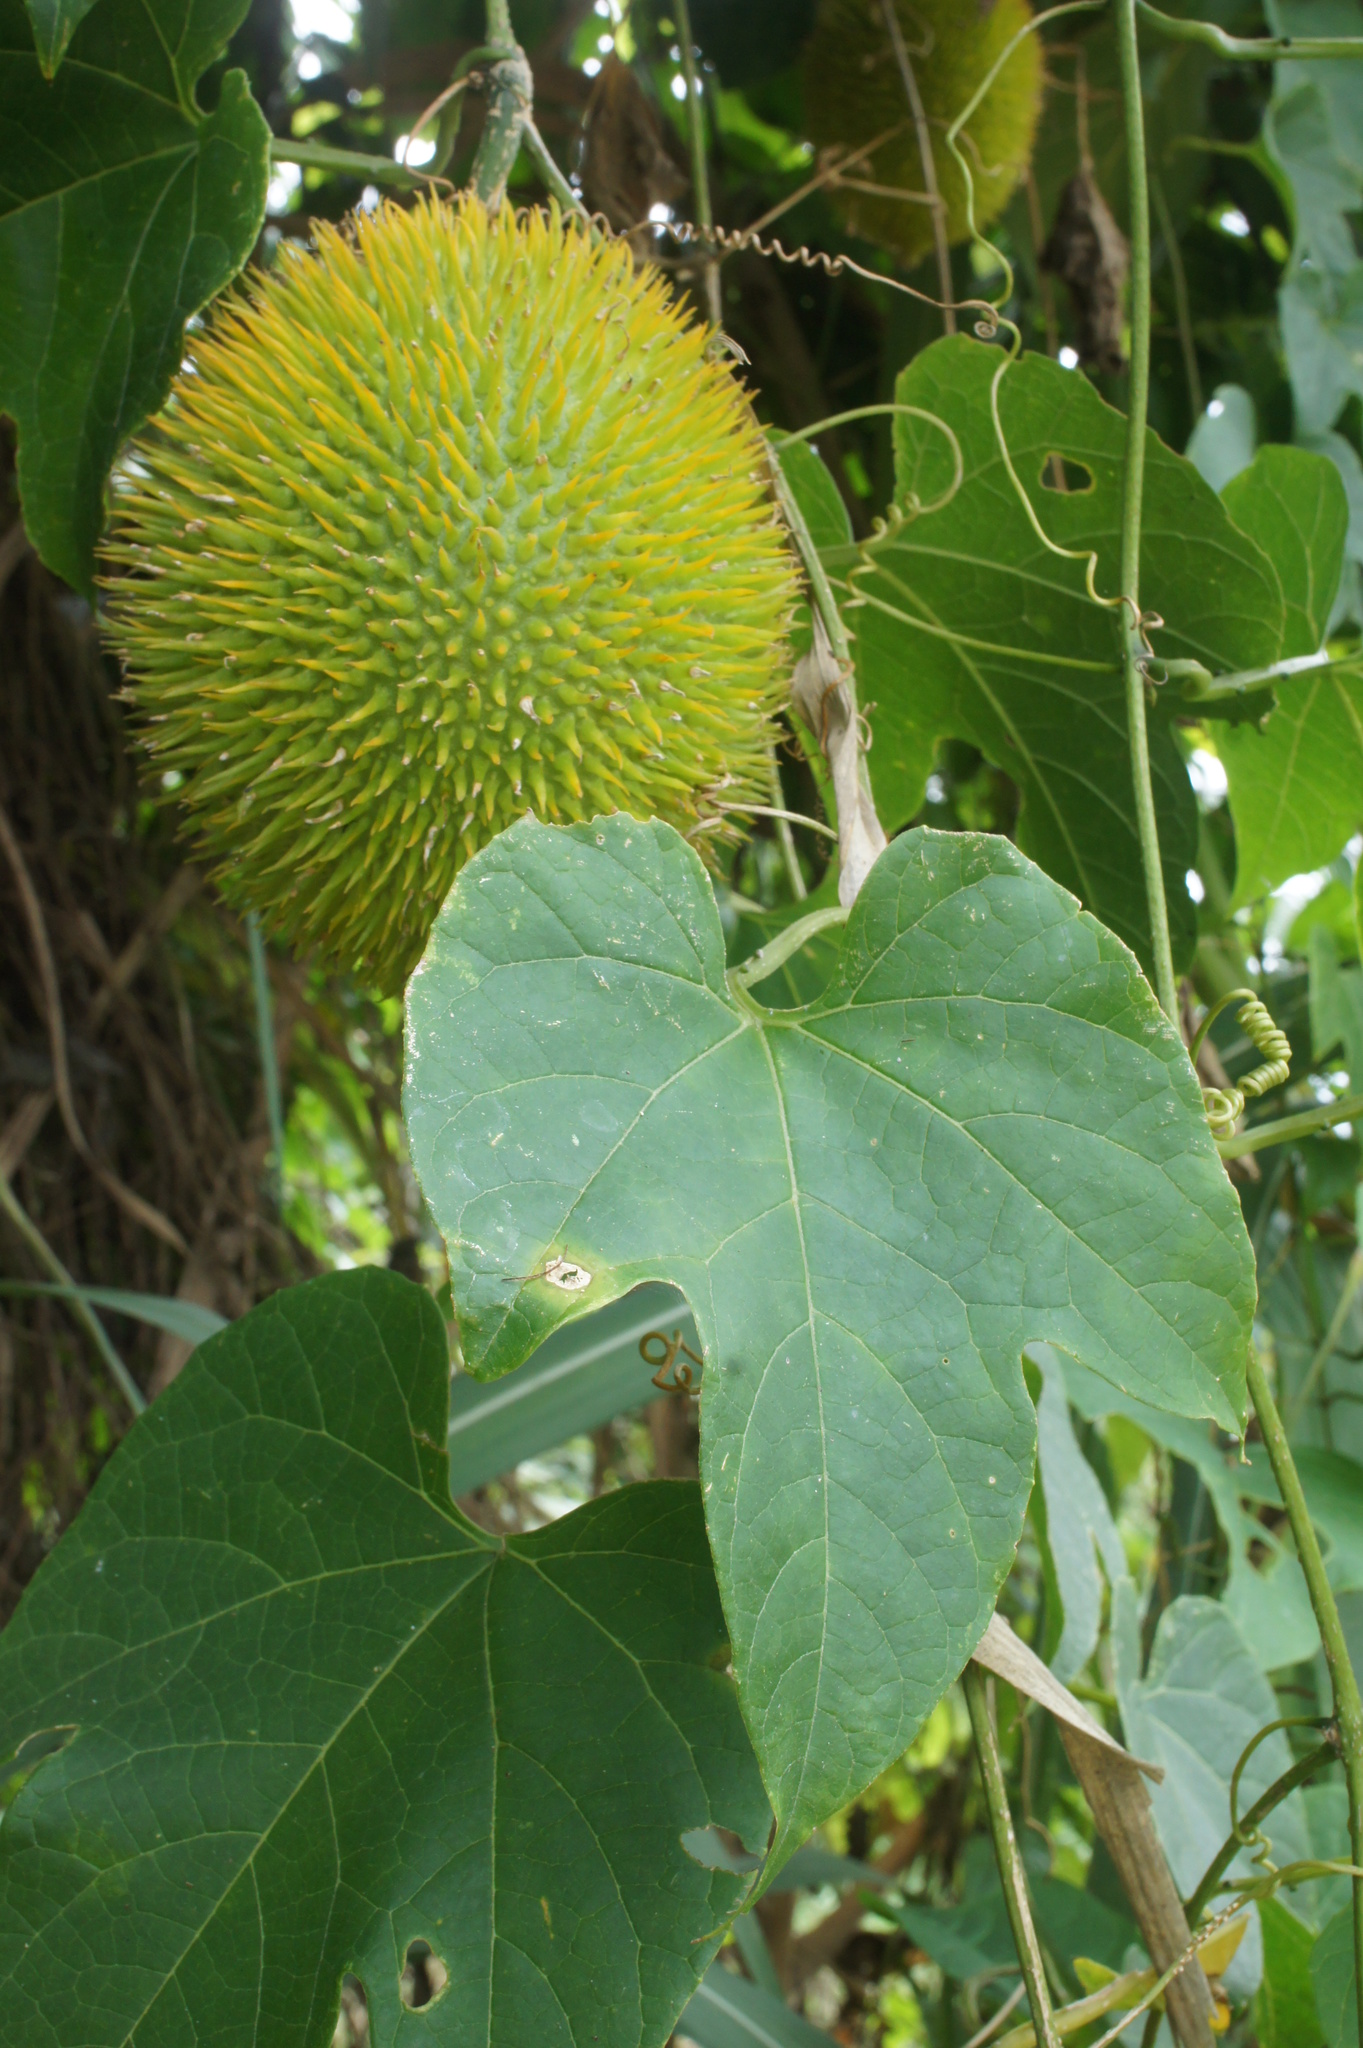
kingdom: Plantae
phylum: Tracheophyta
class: Magnoliopsida
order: Cucurbitales
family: Cucurbitaceae
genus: Momordica
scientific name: Momordica cochinchinensis
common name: Chinese bitter-cucumber
